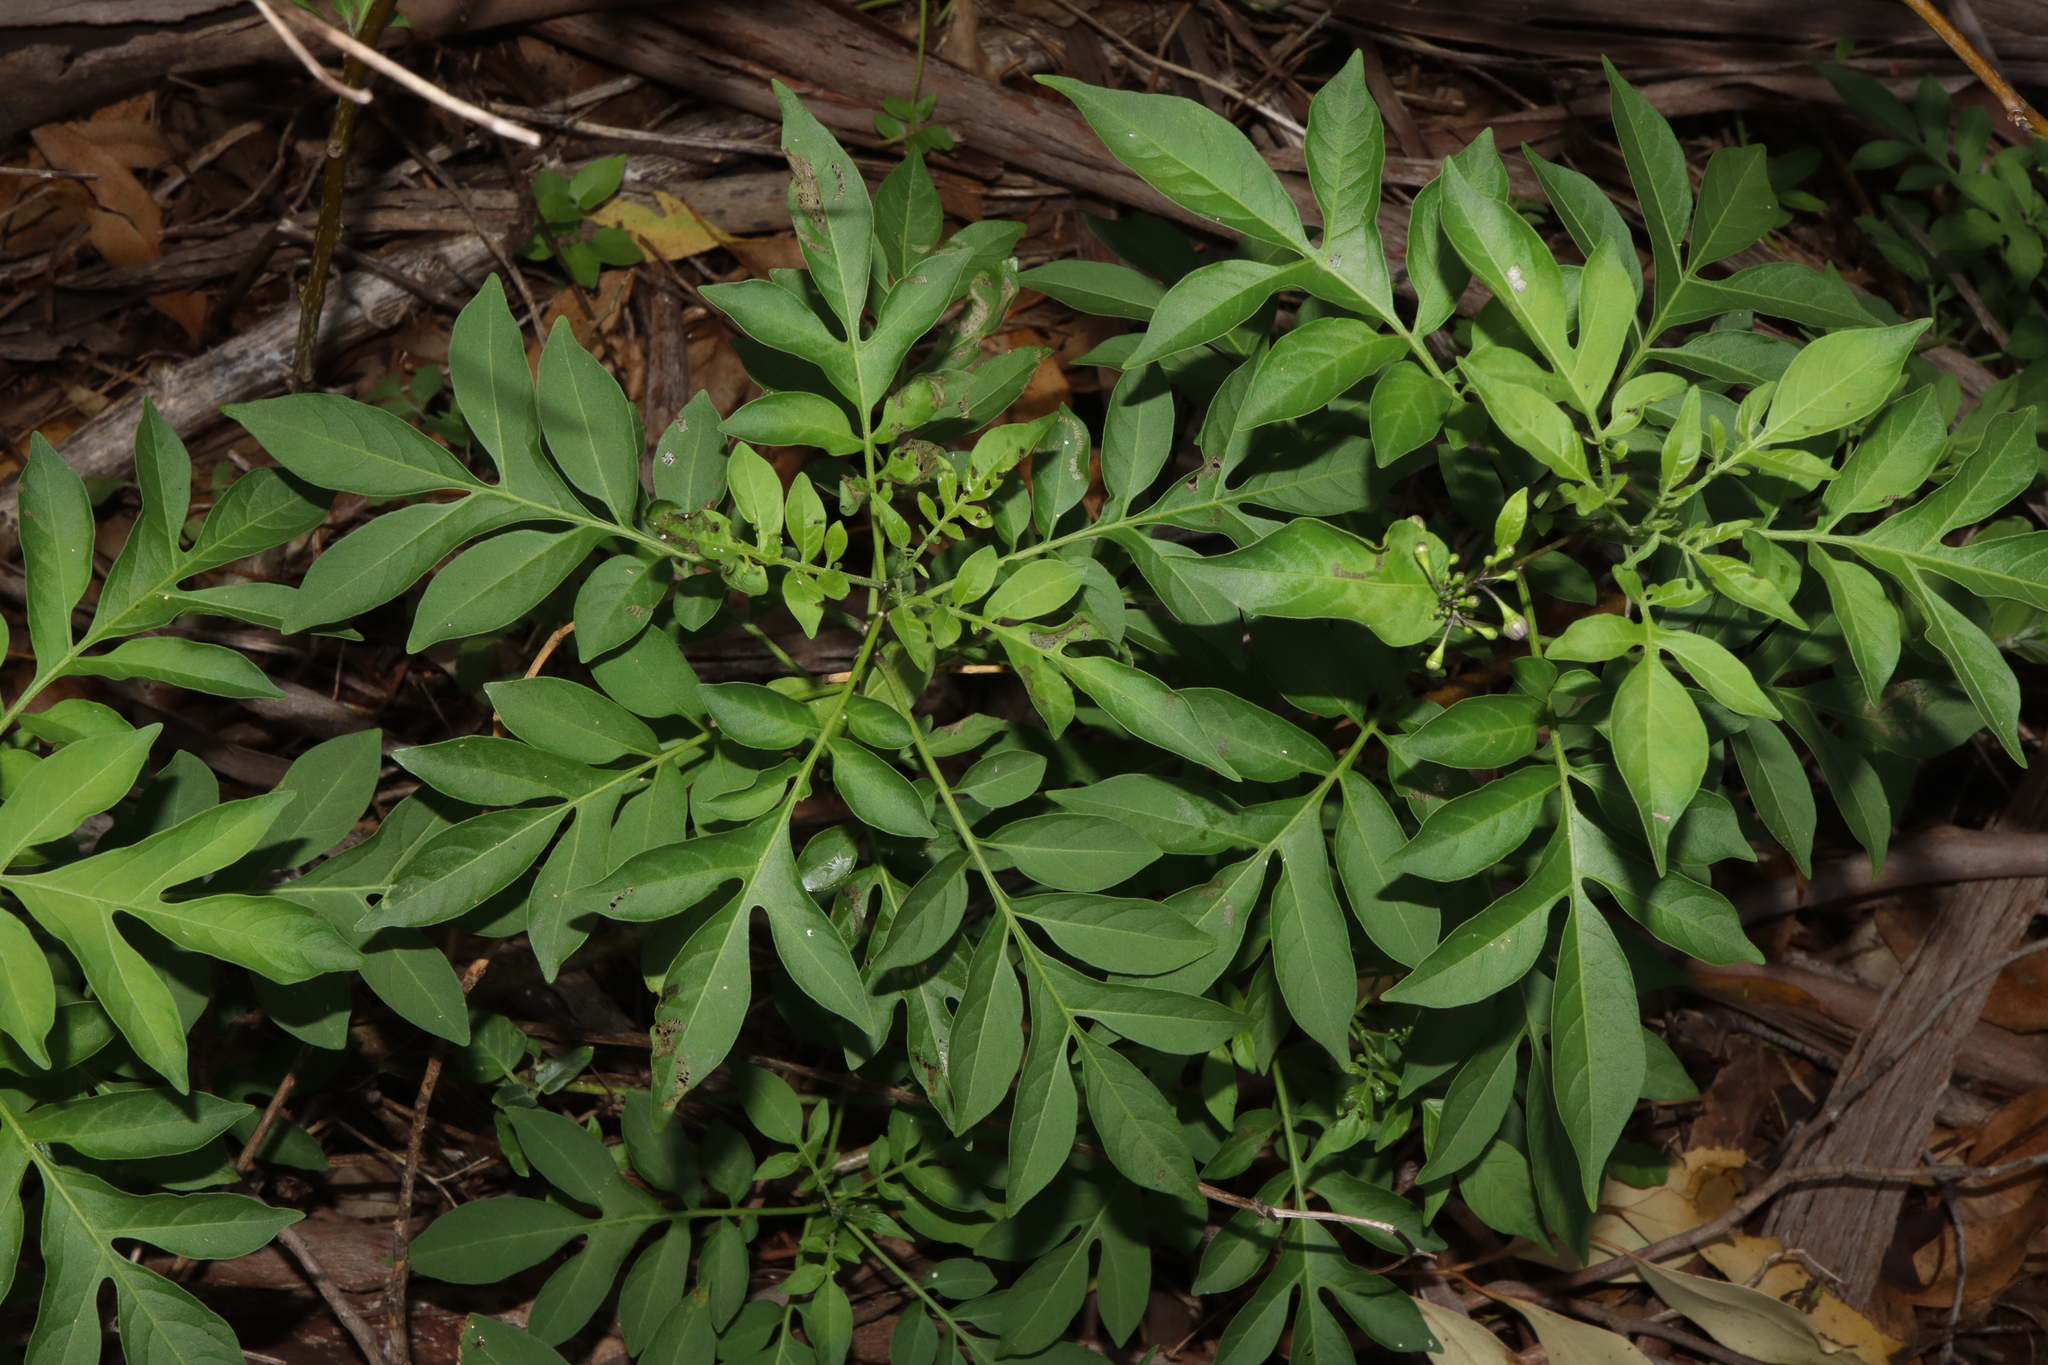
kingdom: Plantae
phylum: Tracheophyta
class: Magnoliopsida
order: Solanales
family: Solanaceae
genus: Solanum
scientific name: Solanum seaforthianum
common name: Brazilian nightshade
